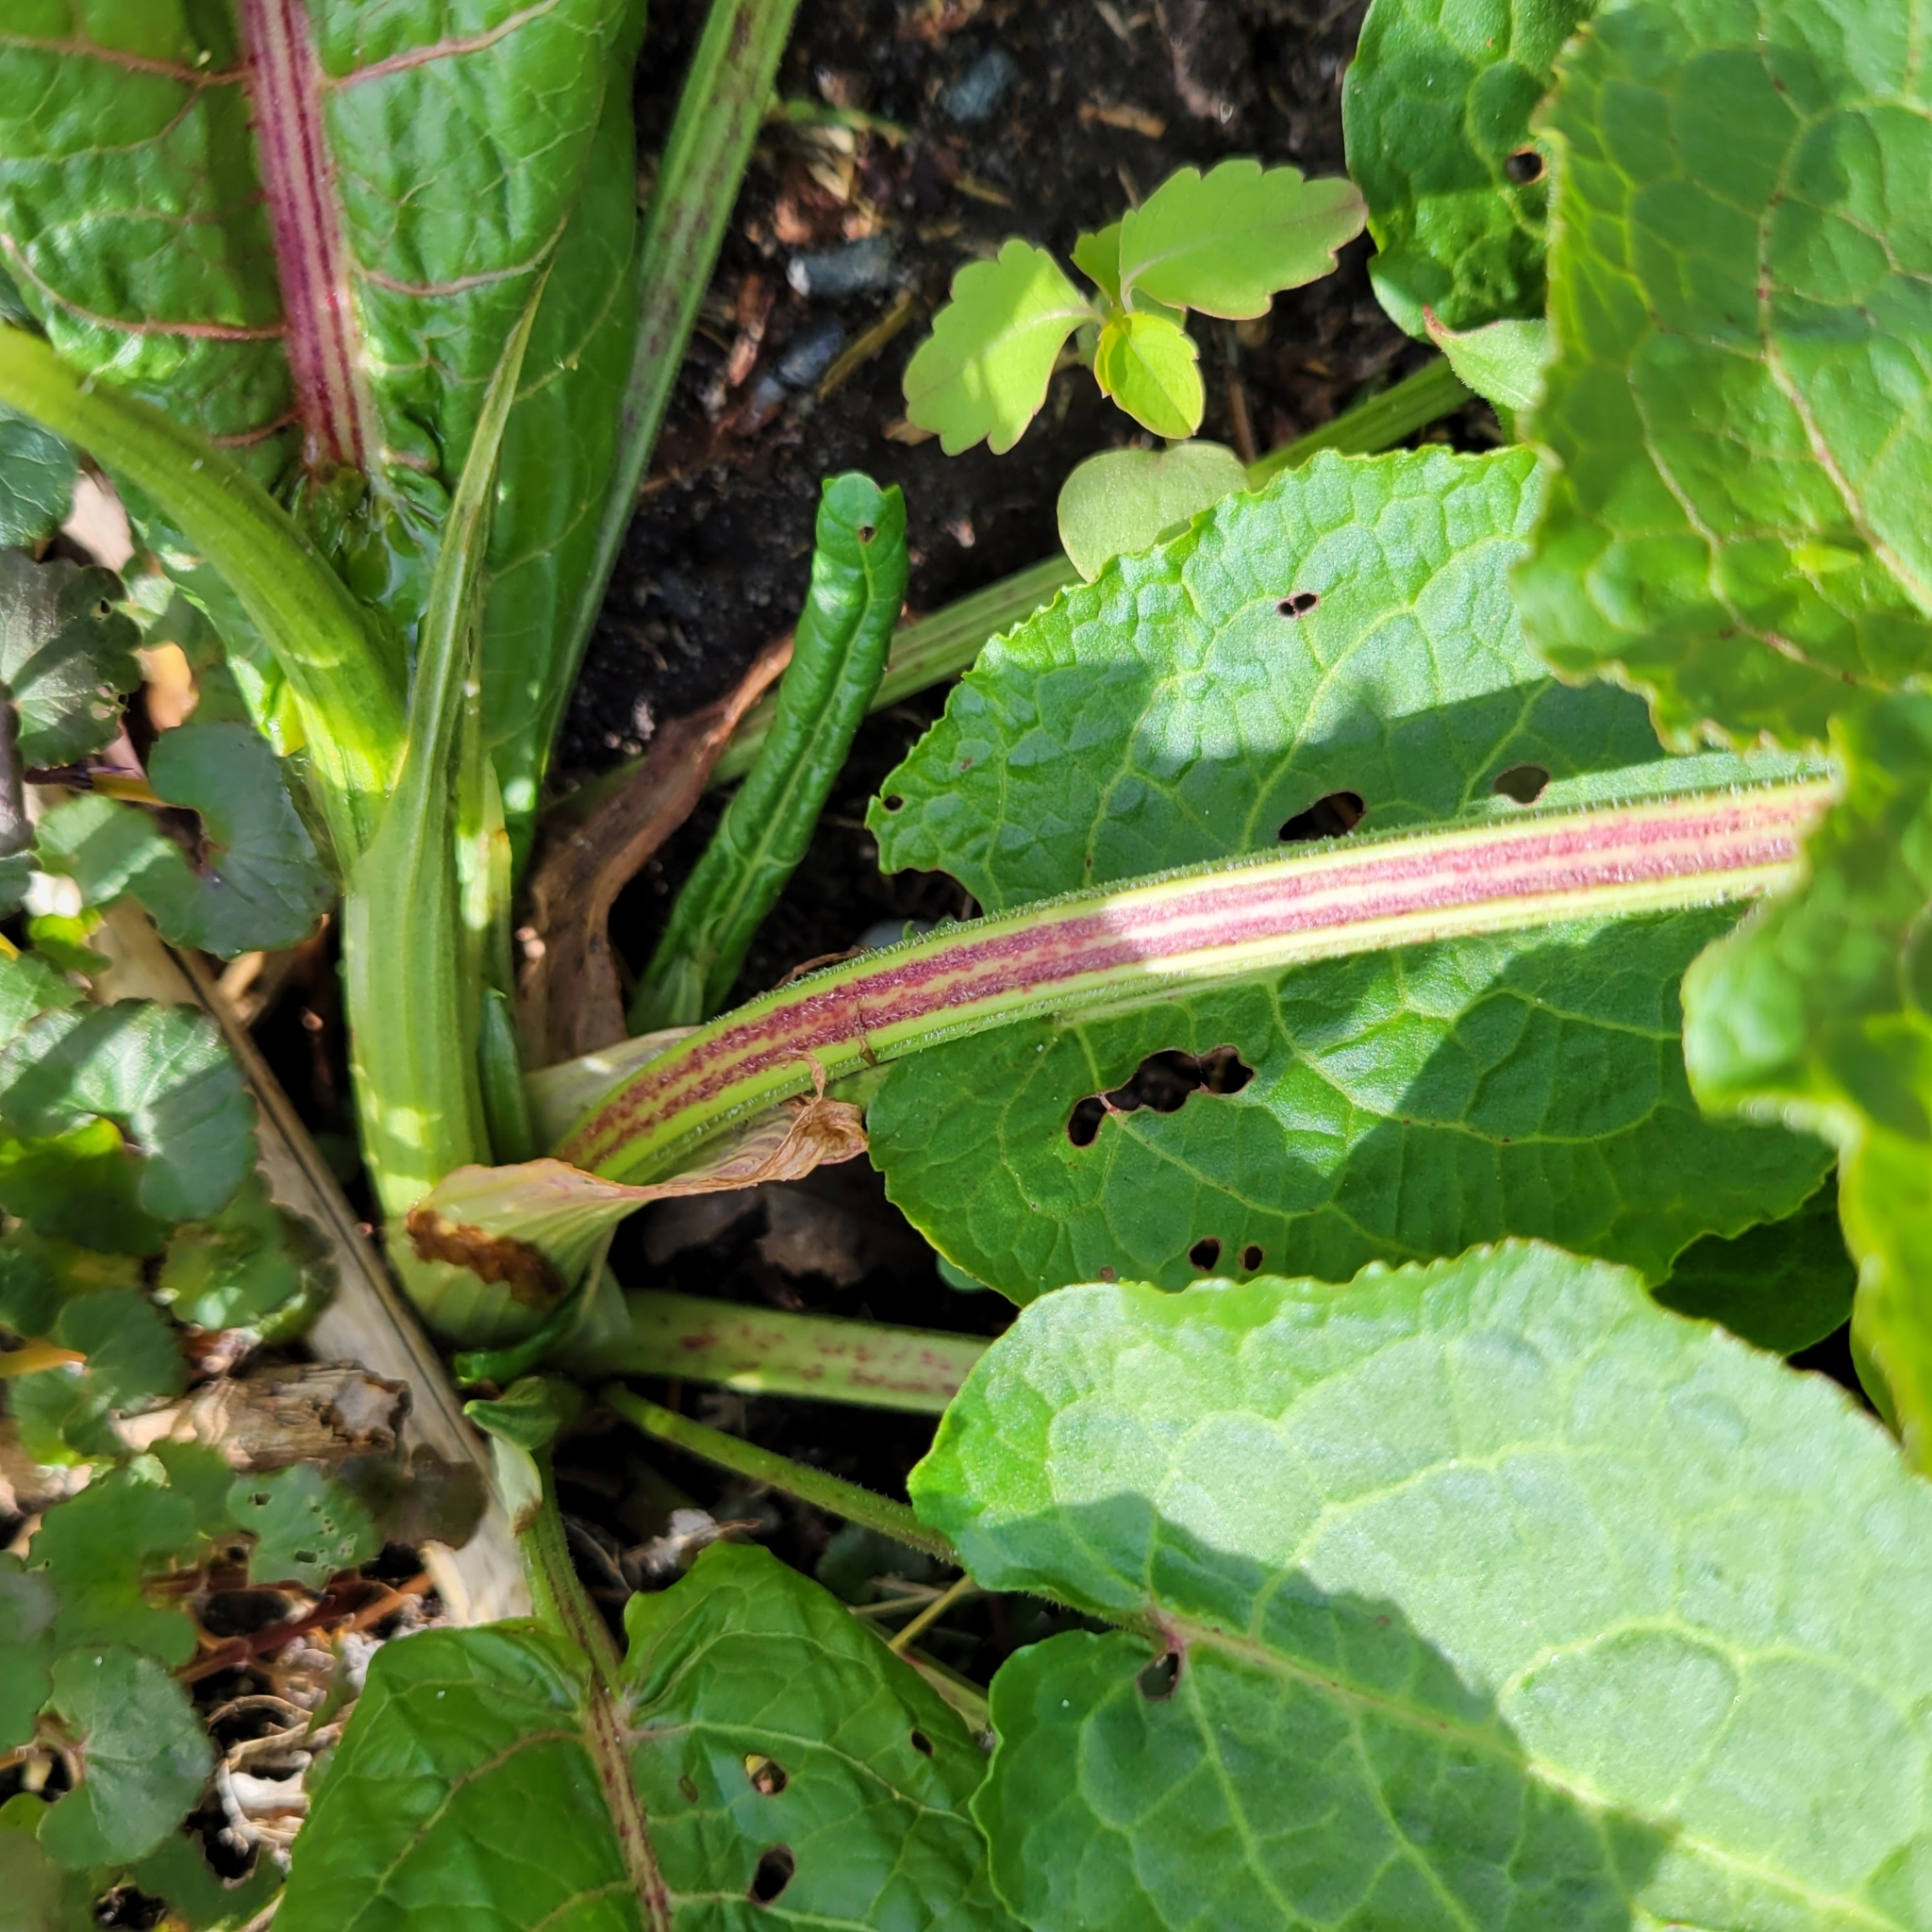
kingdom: Plantae
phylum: Tracheophyta
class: Magnoliopsida
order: Caryophyllales
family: Polygonaceae
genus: Rumex
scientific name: Rumex obtusifolius
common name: Bitter dock
